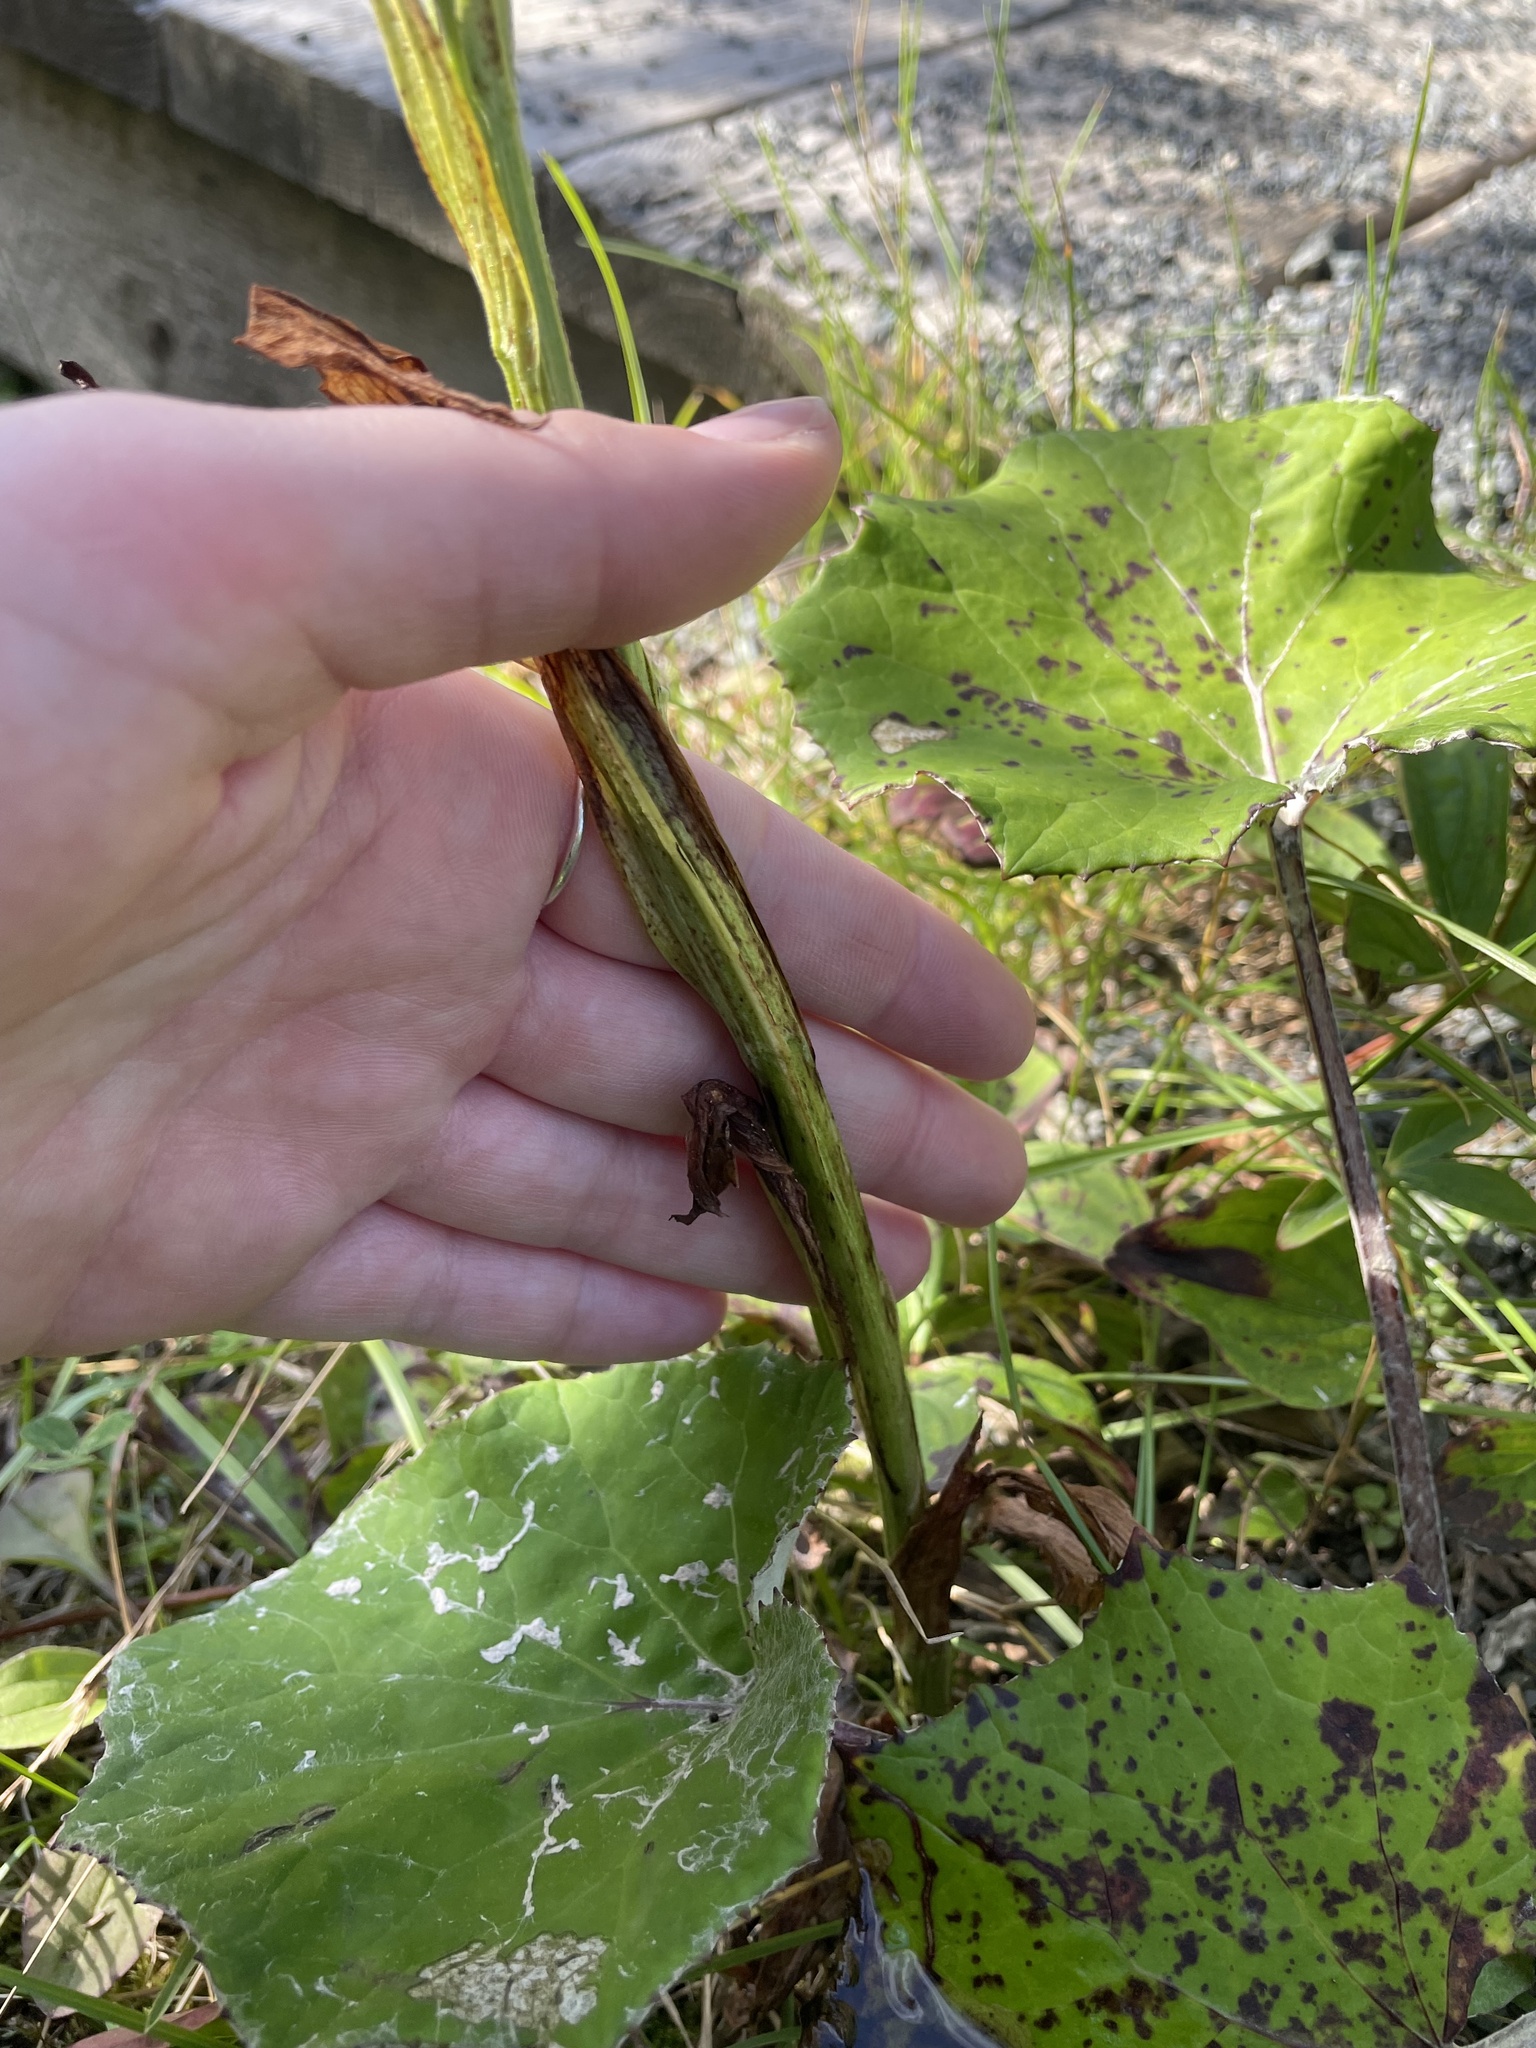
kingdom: Plantae
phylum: Tracheophyta
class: Liliopsida
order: Asparagales
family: Orchidaceae
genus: Platanthera
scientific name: Platanthera blephariglottis
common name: White fringed orchid
